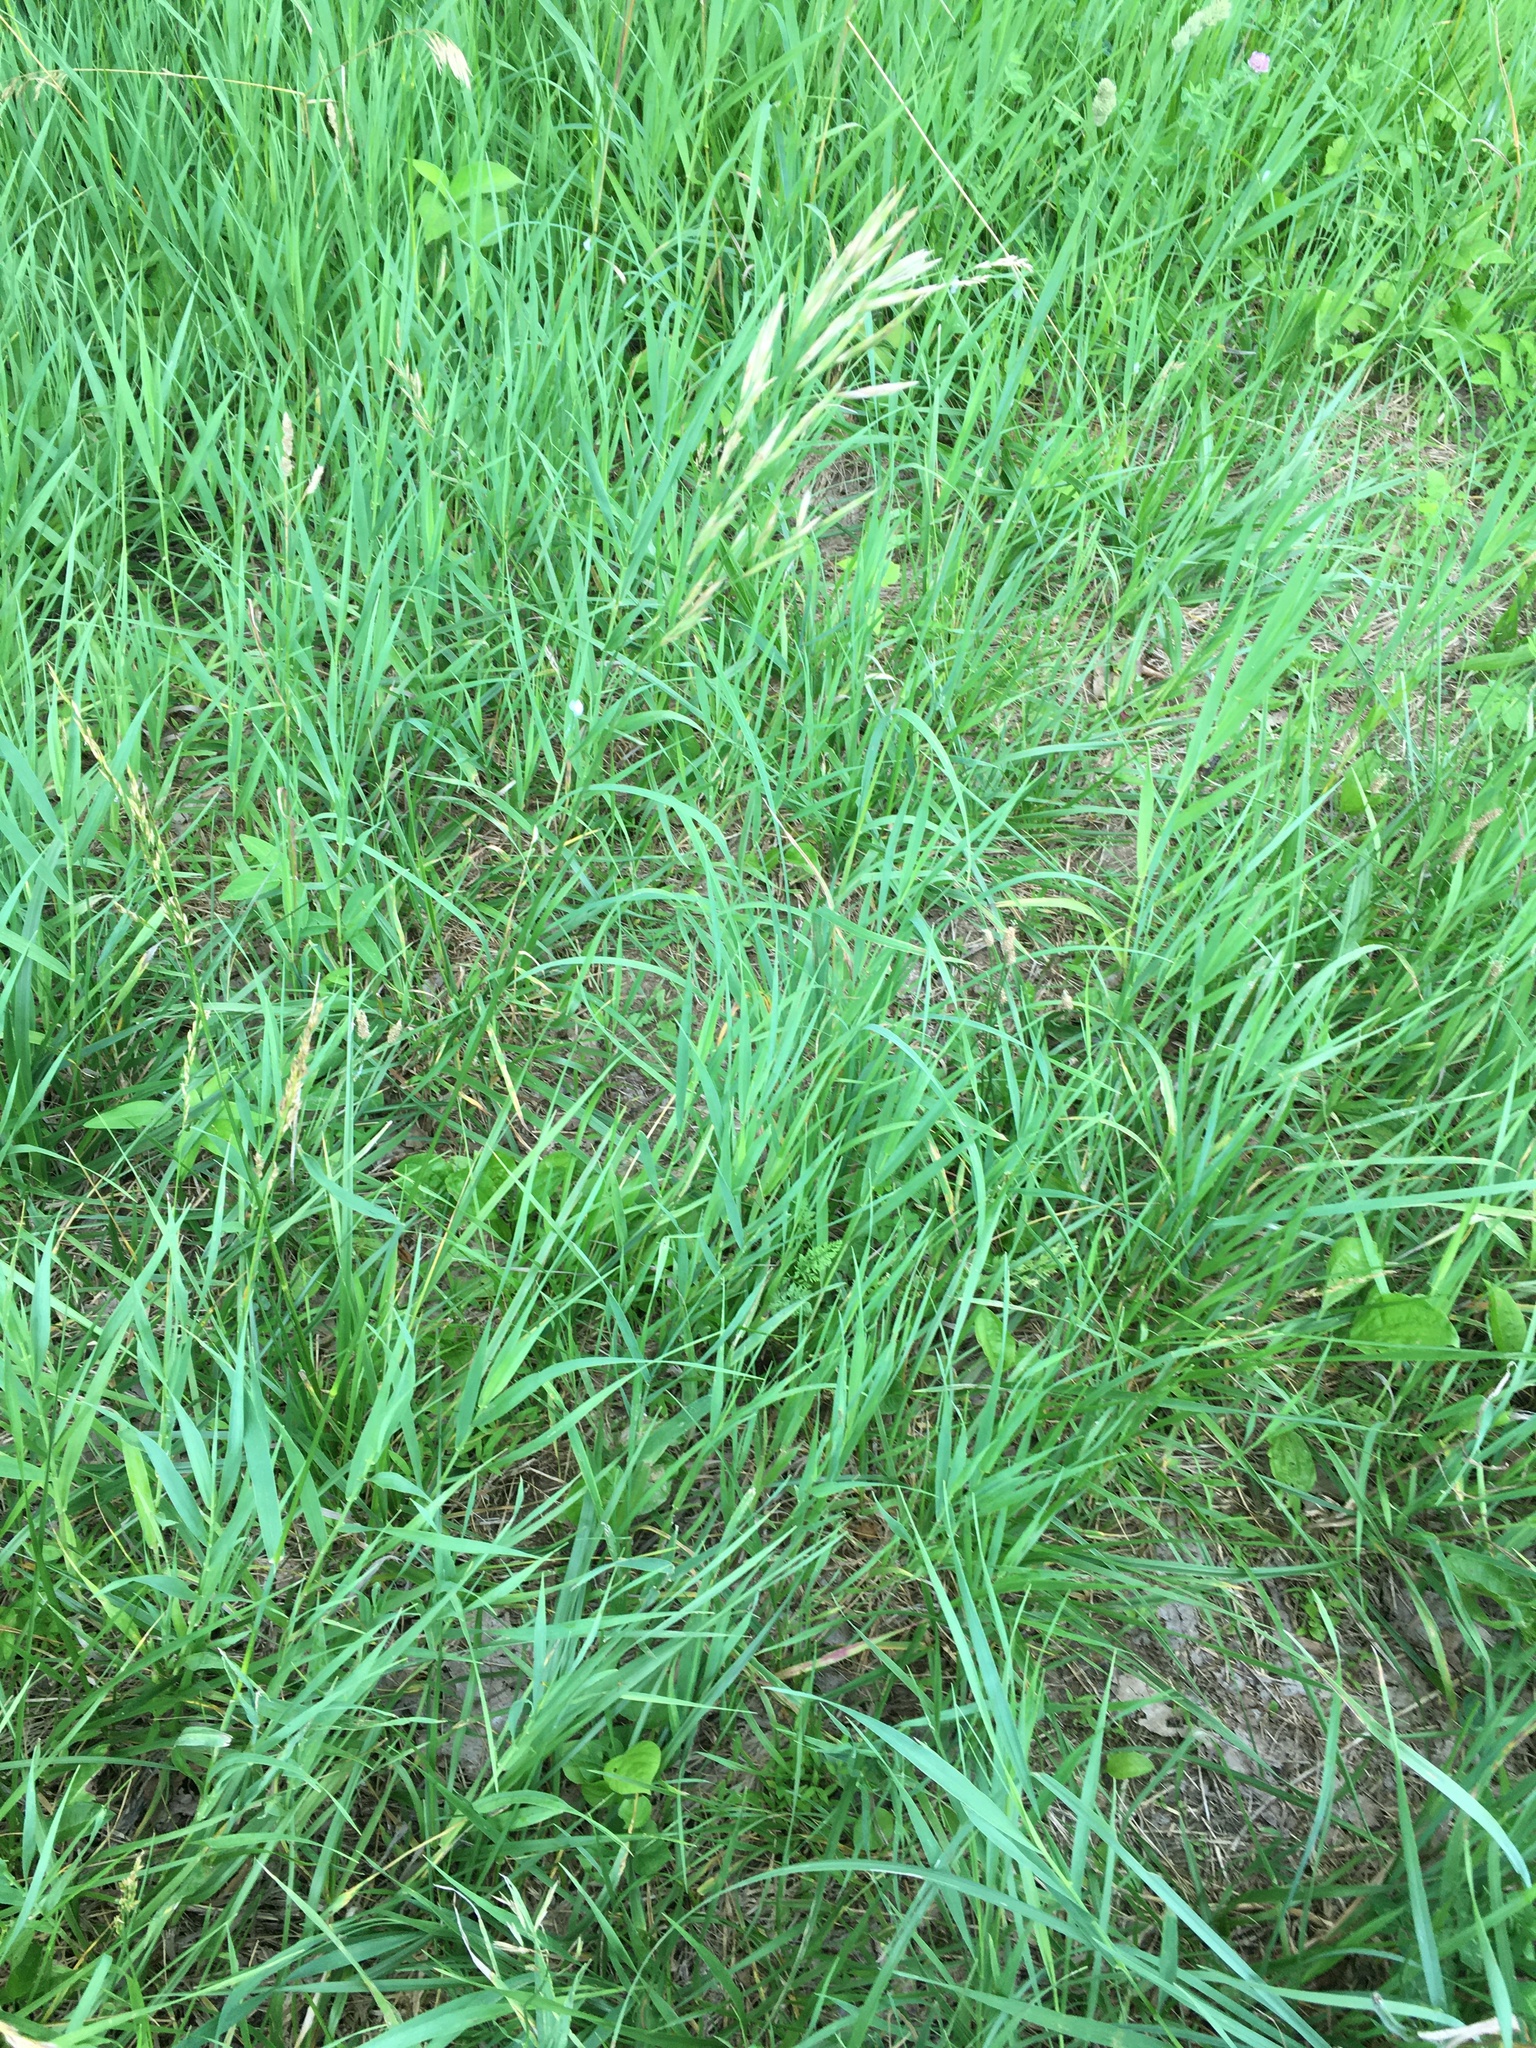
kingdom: Plantae
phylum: Tracheophyta
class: Liliopsida
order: Poales
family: Poaceae
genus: Bromus
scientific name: Bromus inermis
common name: Smooth brome
